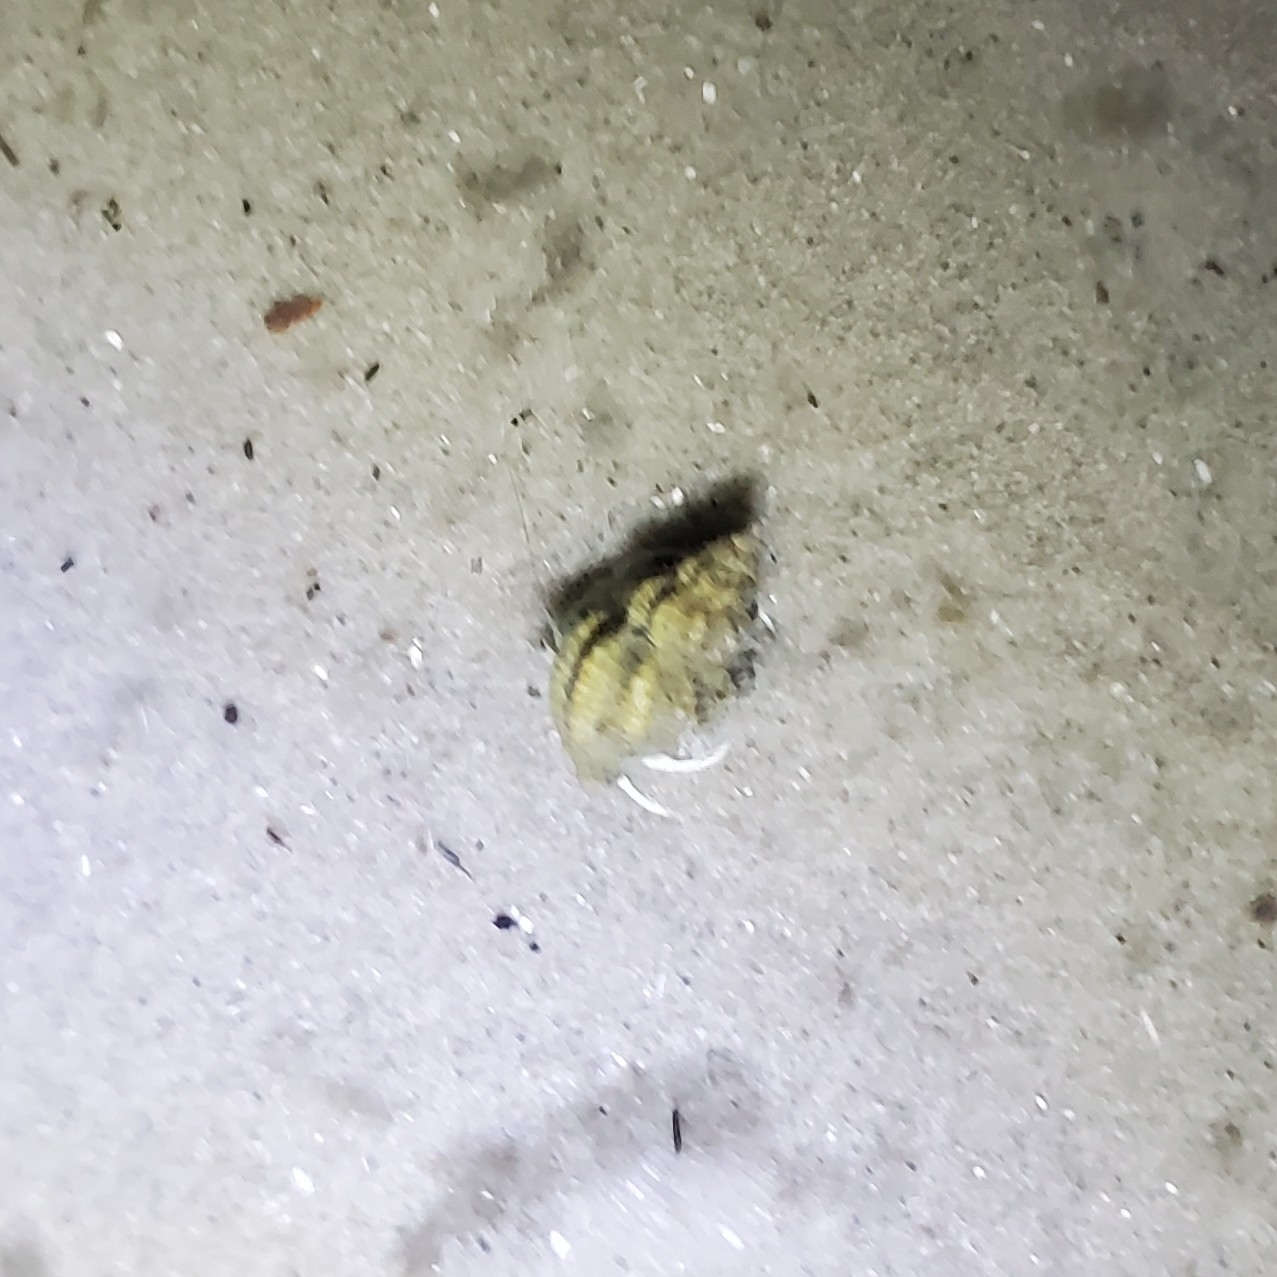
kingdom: Animalia
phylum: Mollusca
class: Gastropoda
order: Neogastropoda
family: Muricidae
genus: Urosalpinx
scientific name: Urosalpinx cinerea
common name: American sting winkle
